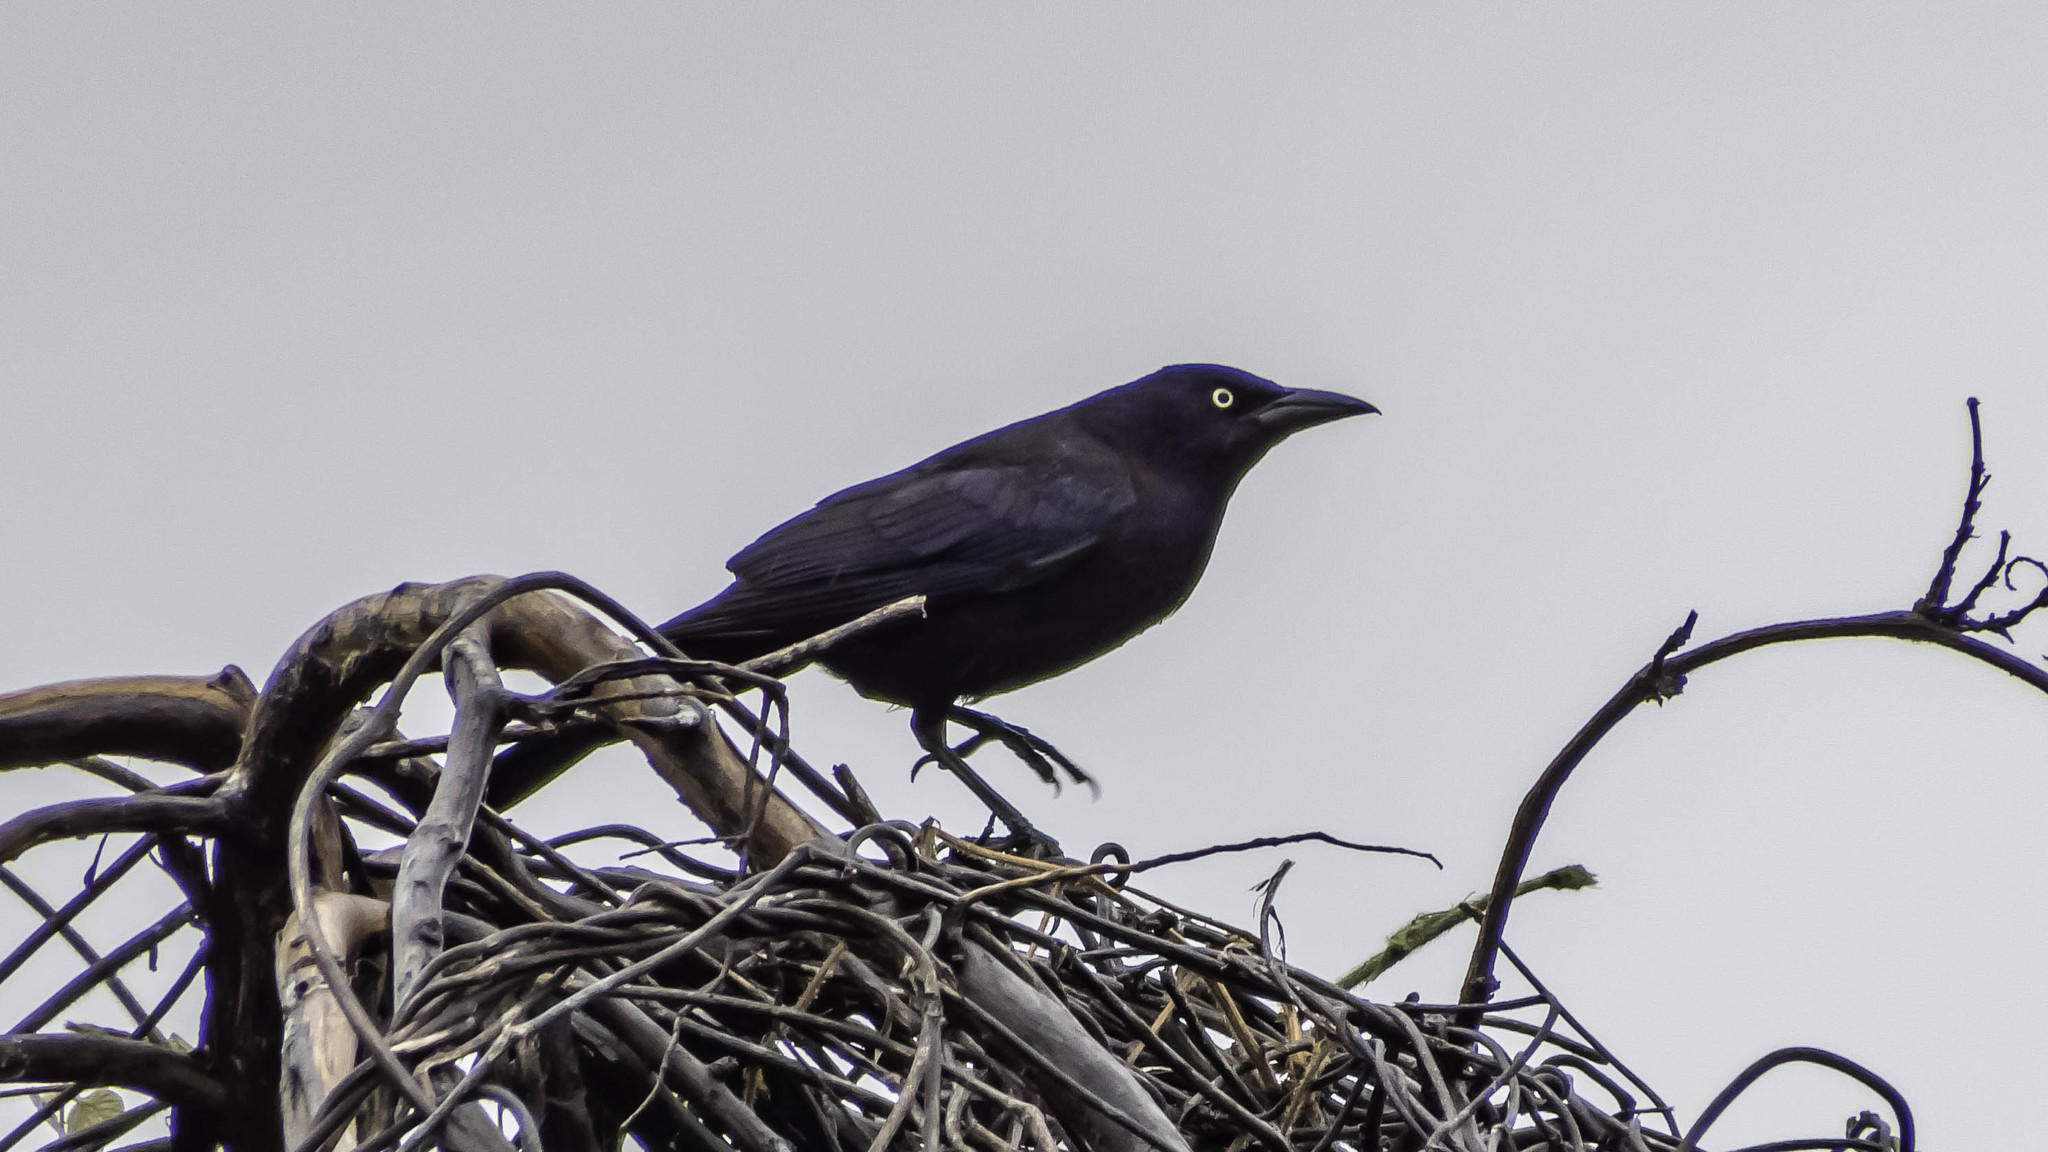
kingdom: Animalia
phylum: Chordata
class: Aves
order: Passeriformes
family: Icteridae
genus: Quiscalus
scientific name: Quiscalus quiscula
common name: Common grackle
